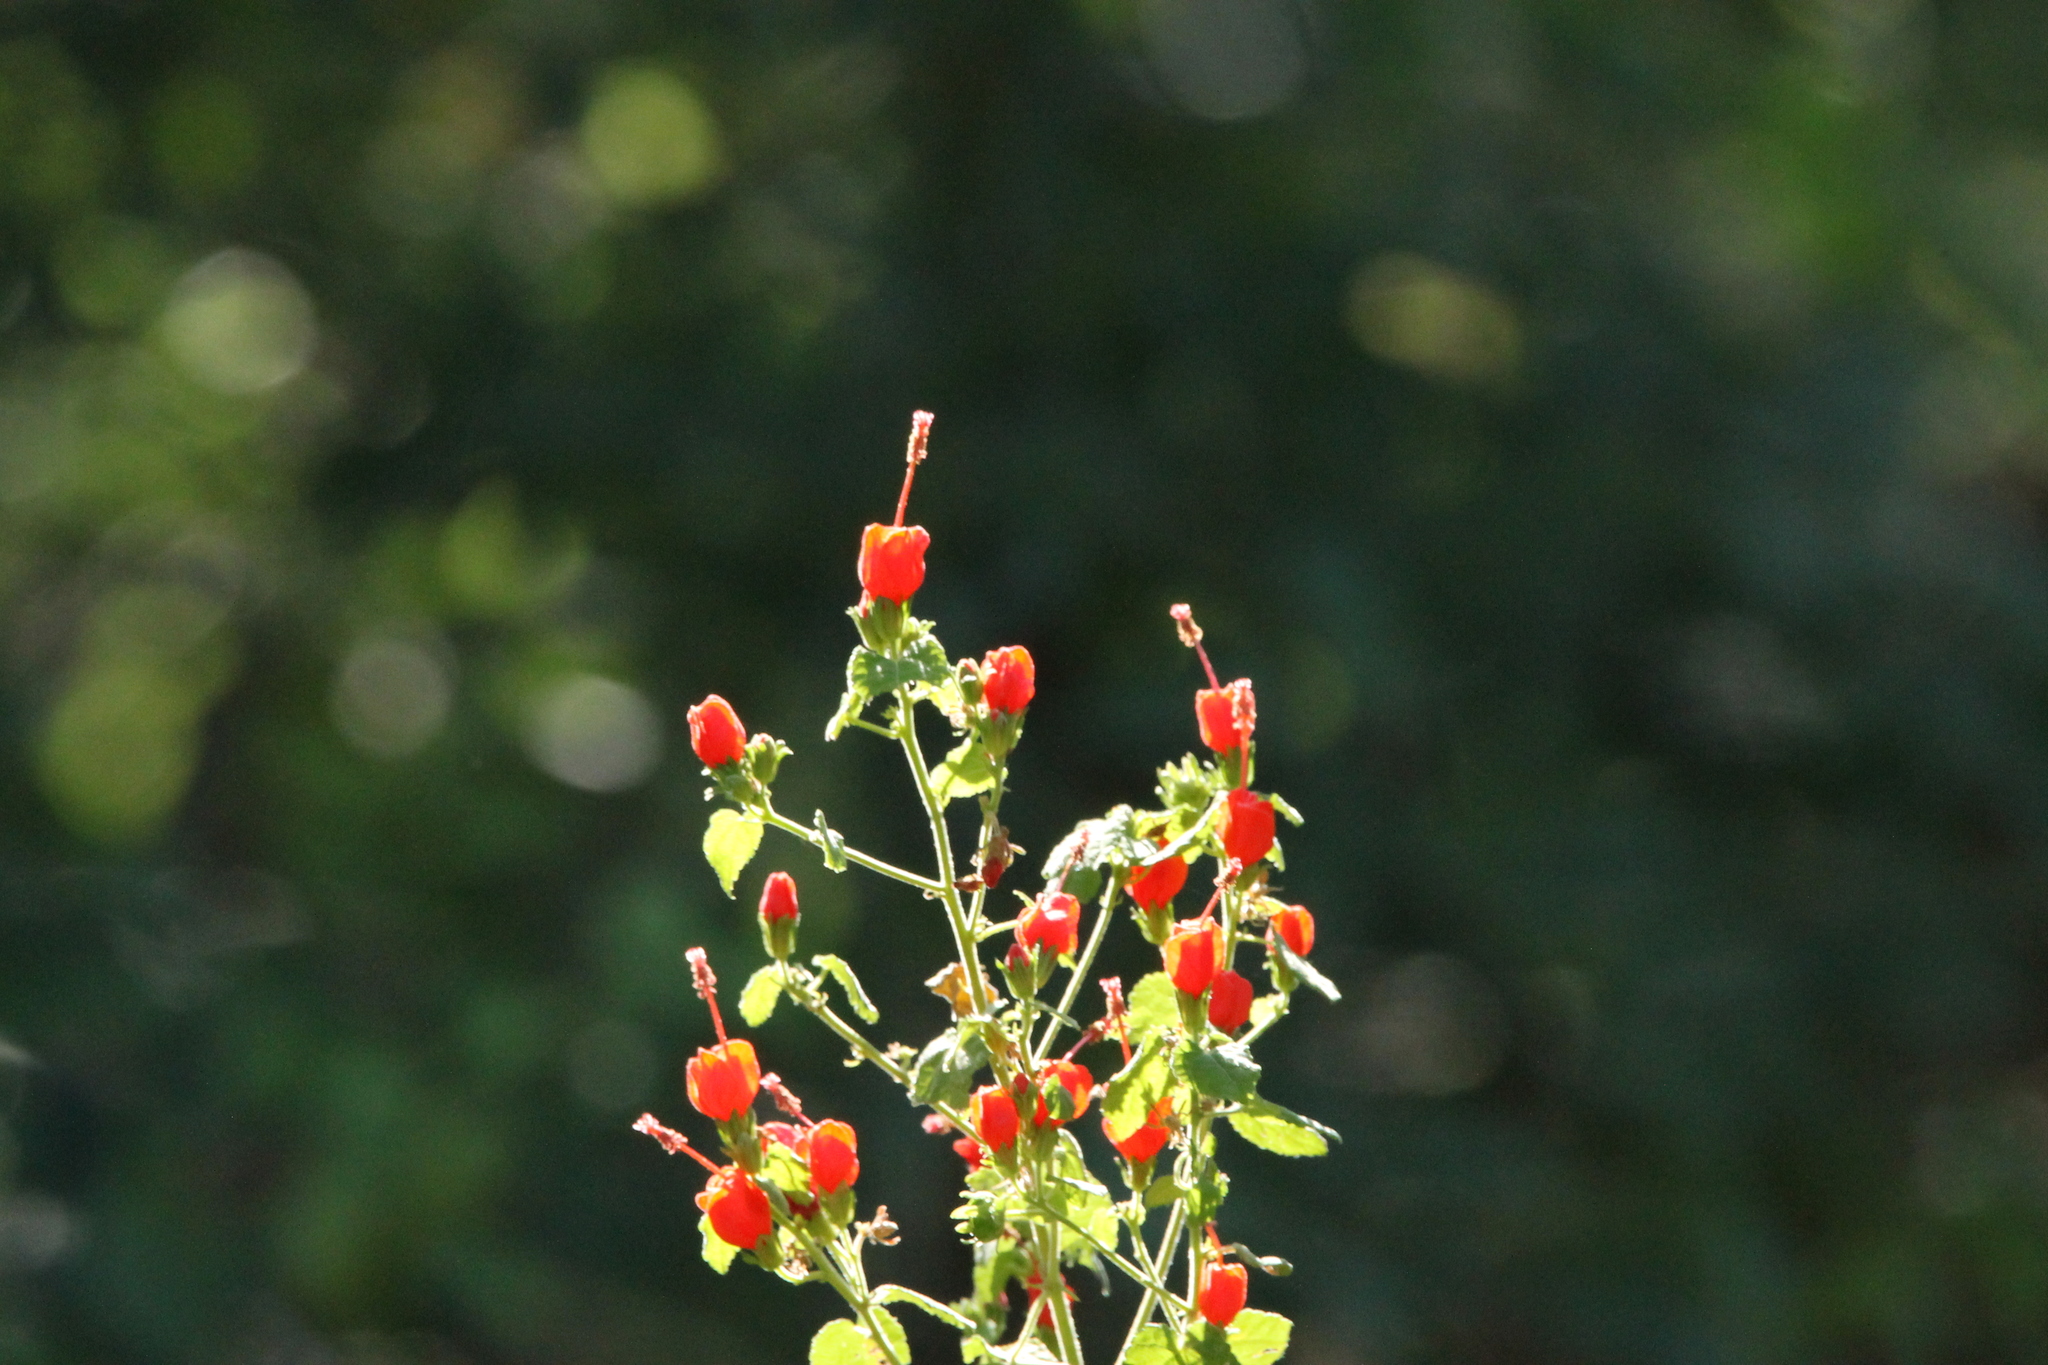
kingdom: Plantae
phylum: Tracheophyta
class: Magnoliopsida
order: Malvales
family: Malvaceae
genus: Malvaviscus
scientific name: Malvaviscus arboreus
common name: Wax mallow
